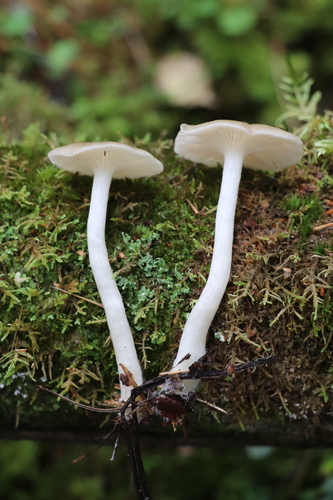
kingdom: Fungi
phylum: Basidiomycota
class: Agaricomycetes
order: Agaricales
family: Entolomataceae
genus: Entoloma
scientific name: Entoloma
